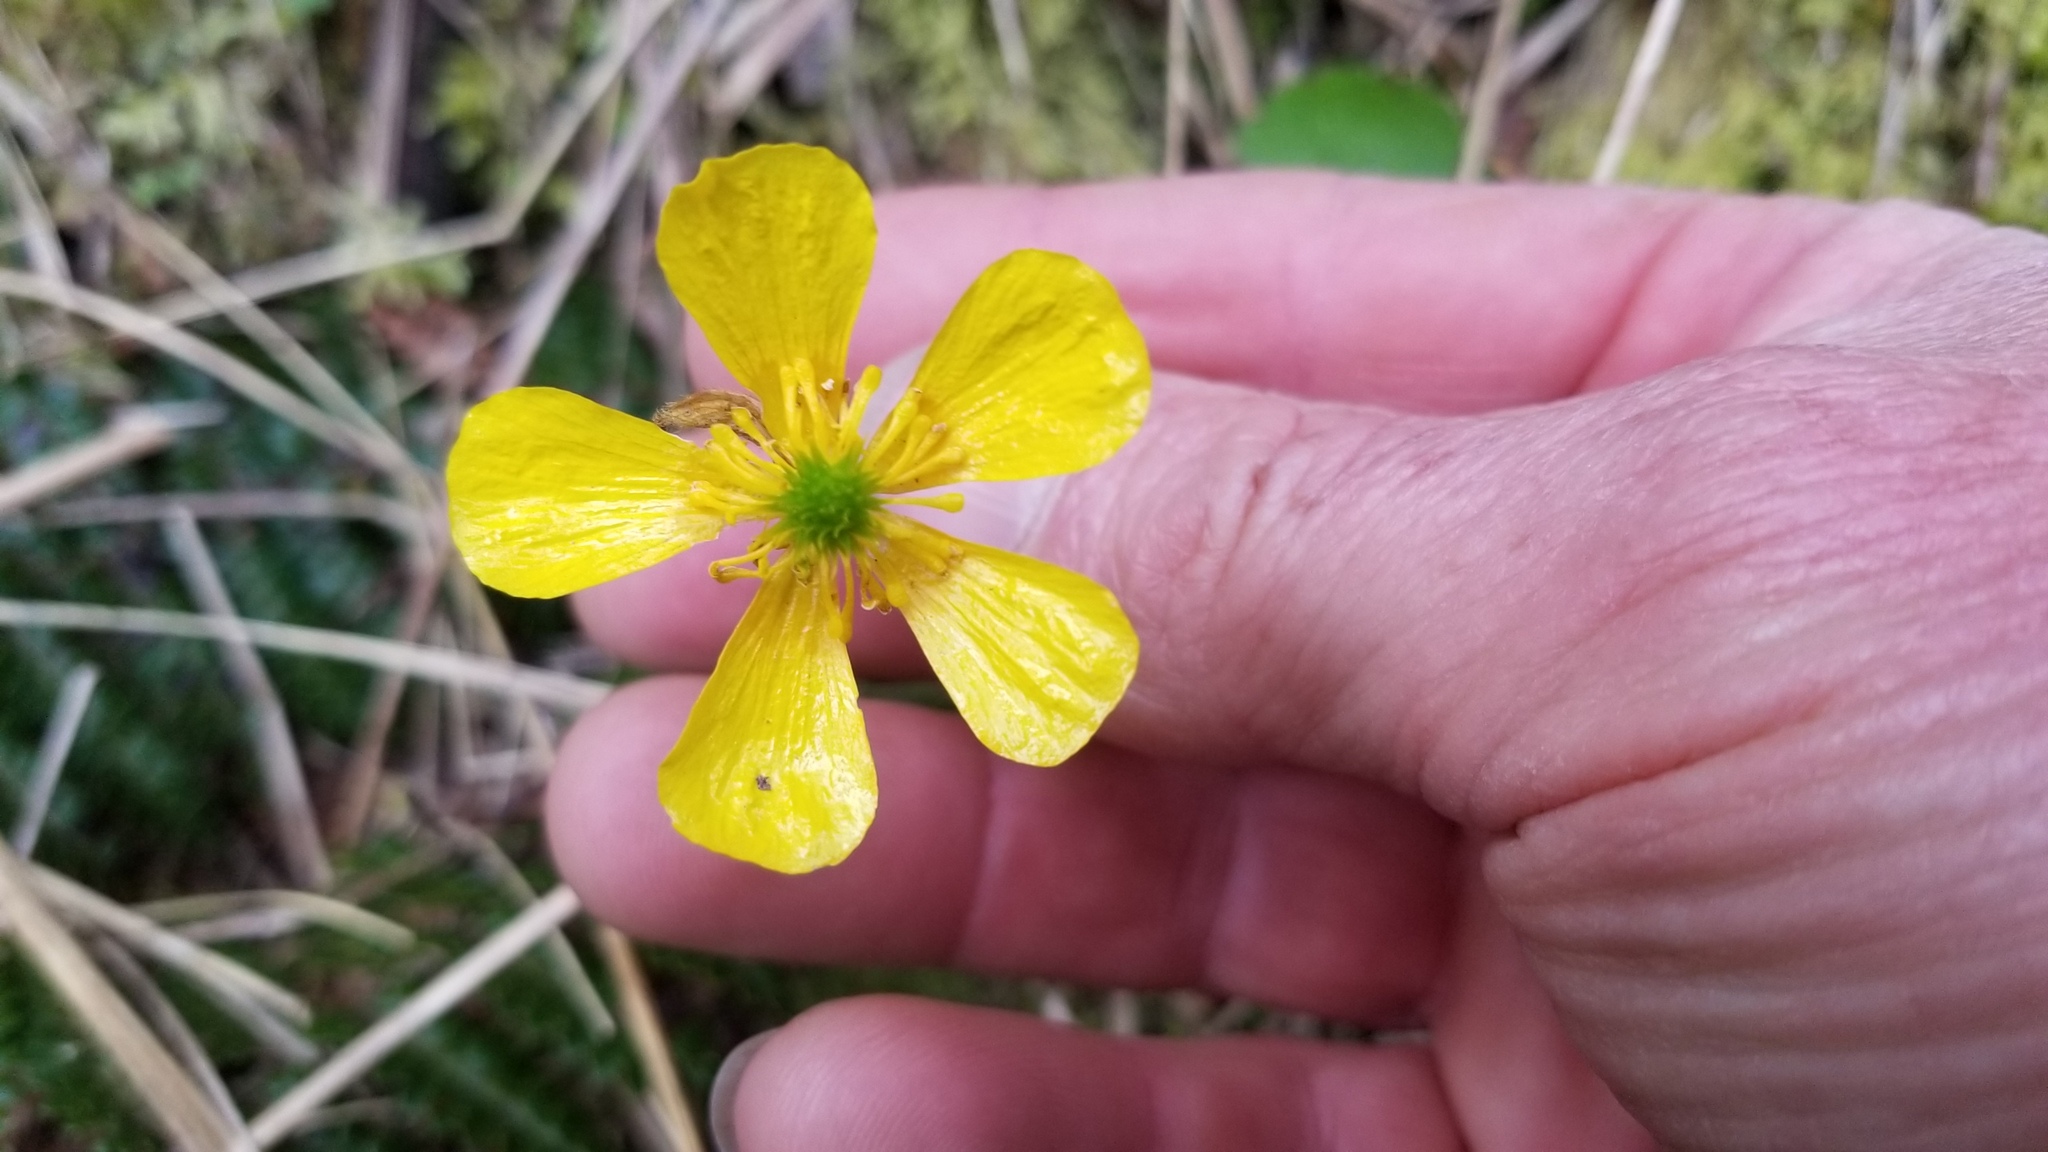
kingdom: Plantae
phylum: Tracheophyta
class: Magnoliopsida
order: Ranunculales
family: Ranunculaceae
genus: Ranunculus
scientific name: Ranunculus insignis
